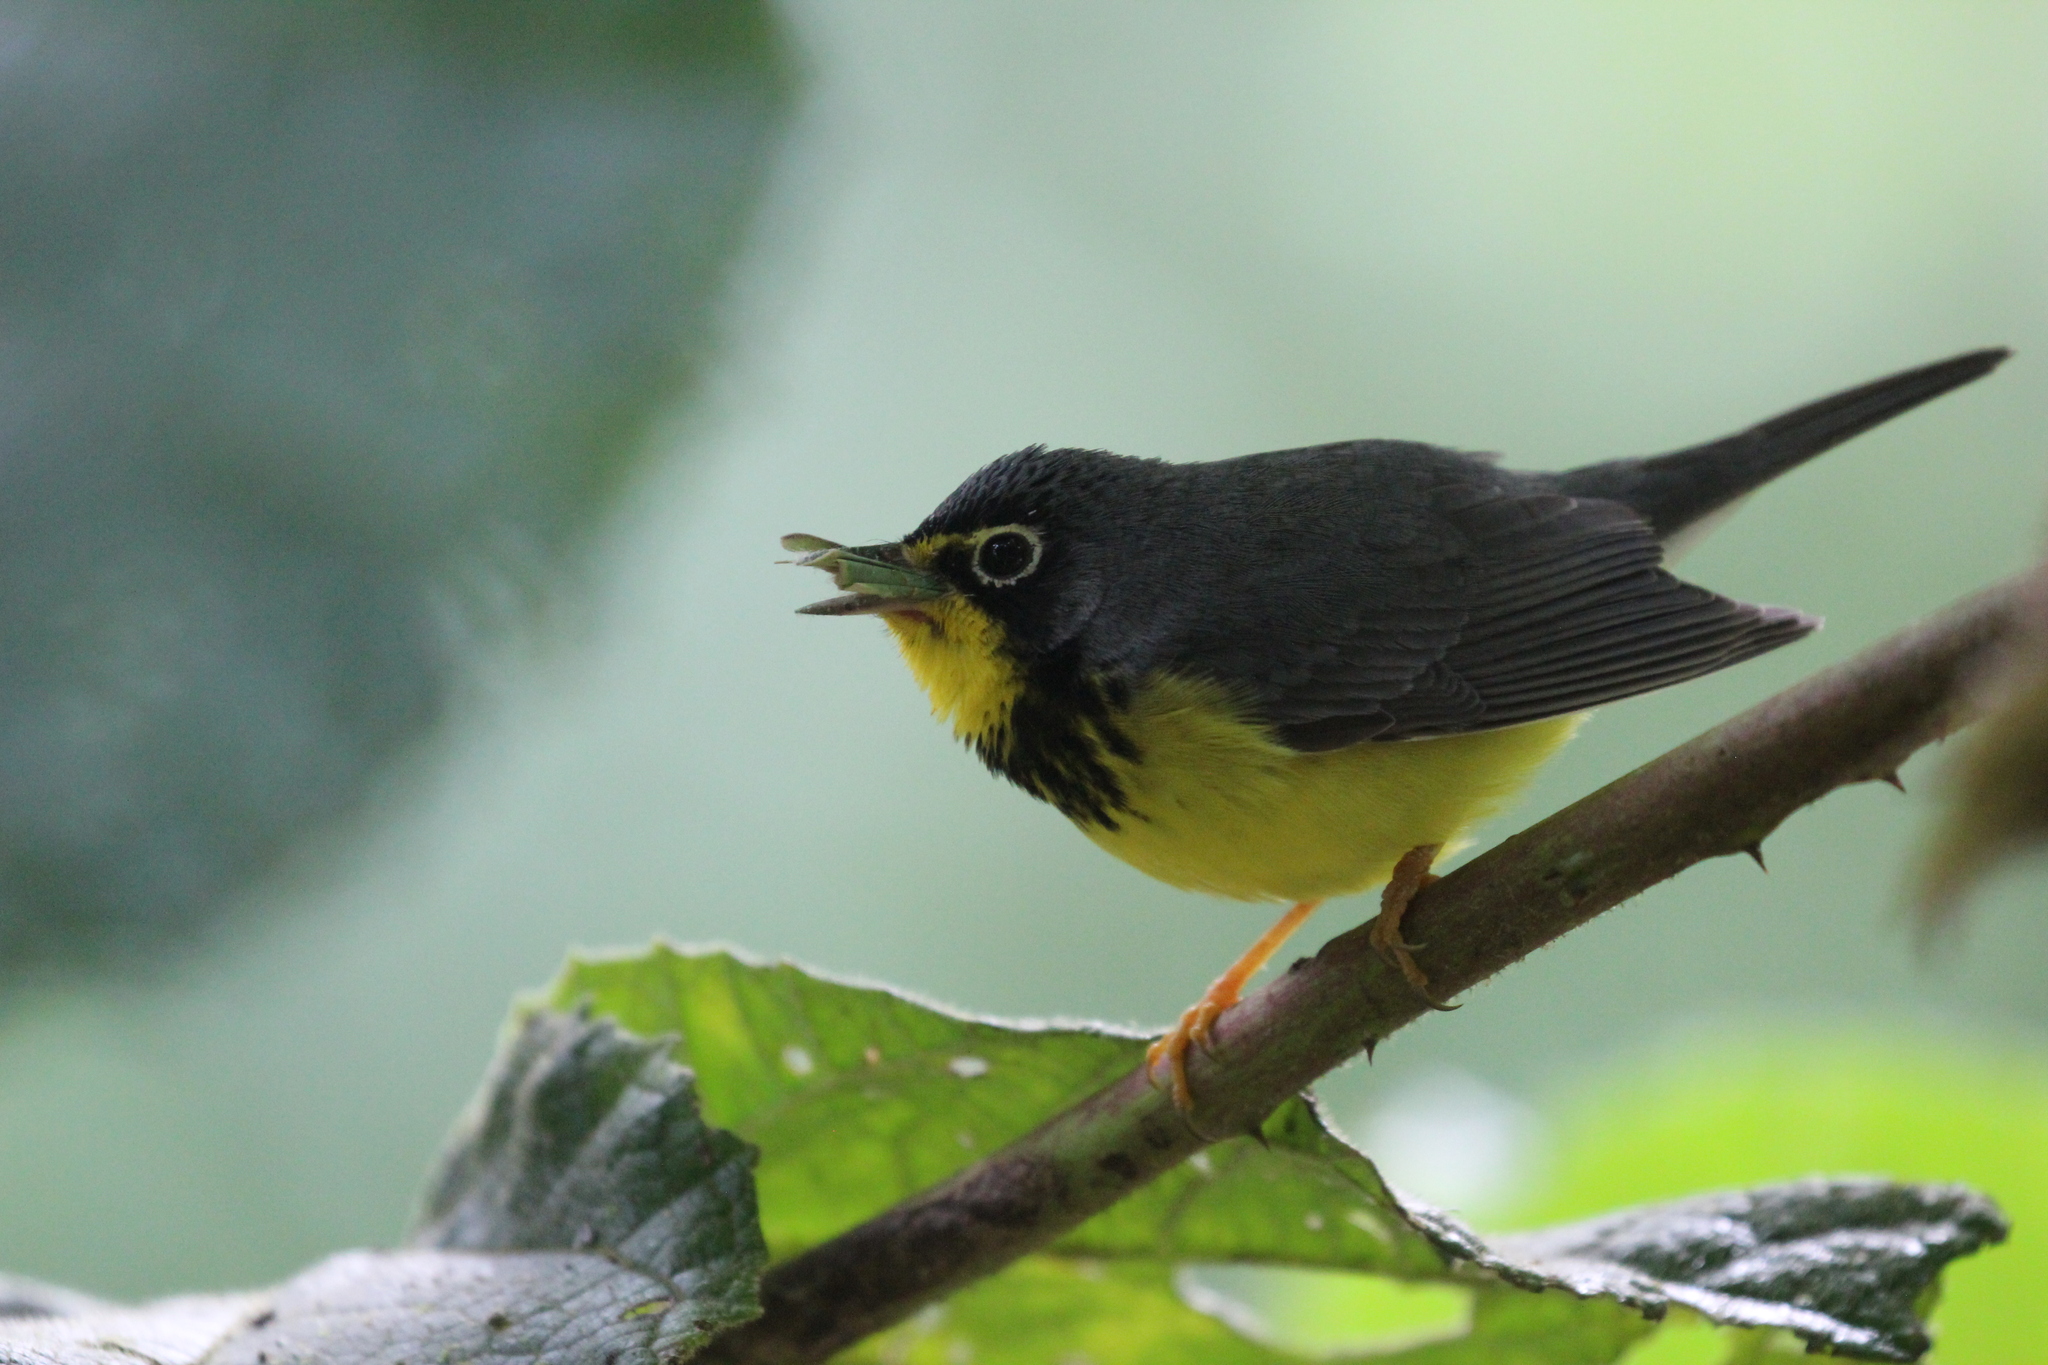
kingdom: Animalia
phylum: Chordata
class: Aves
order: Passeriformes
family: Parulidae
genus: Cardellina
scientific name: Cardellina canadensis
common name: Canada warbler
